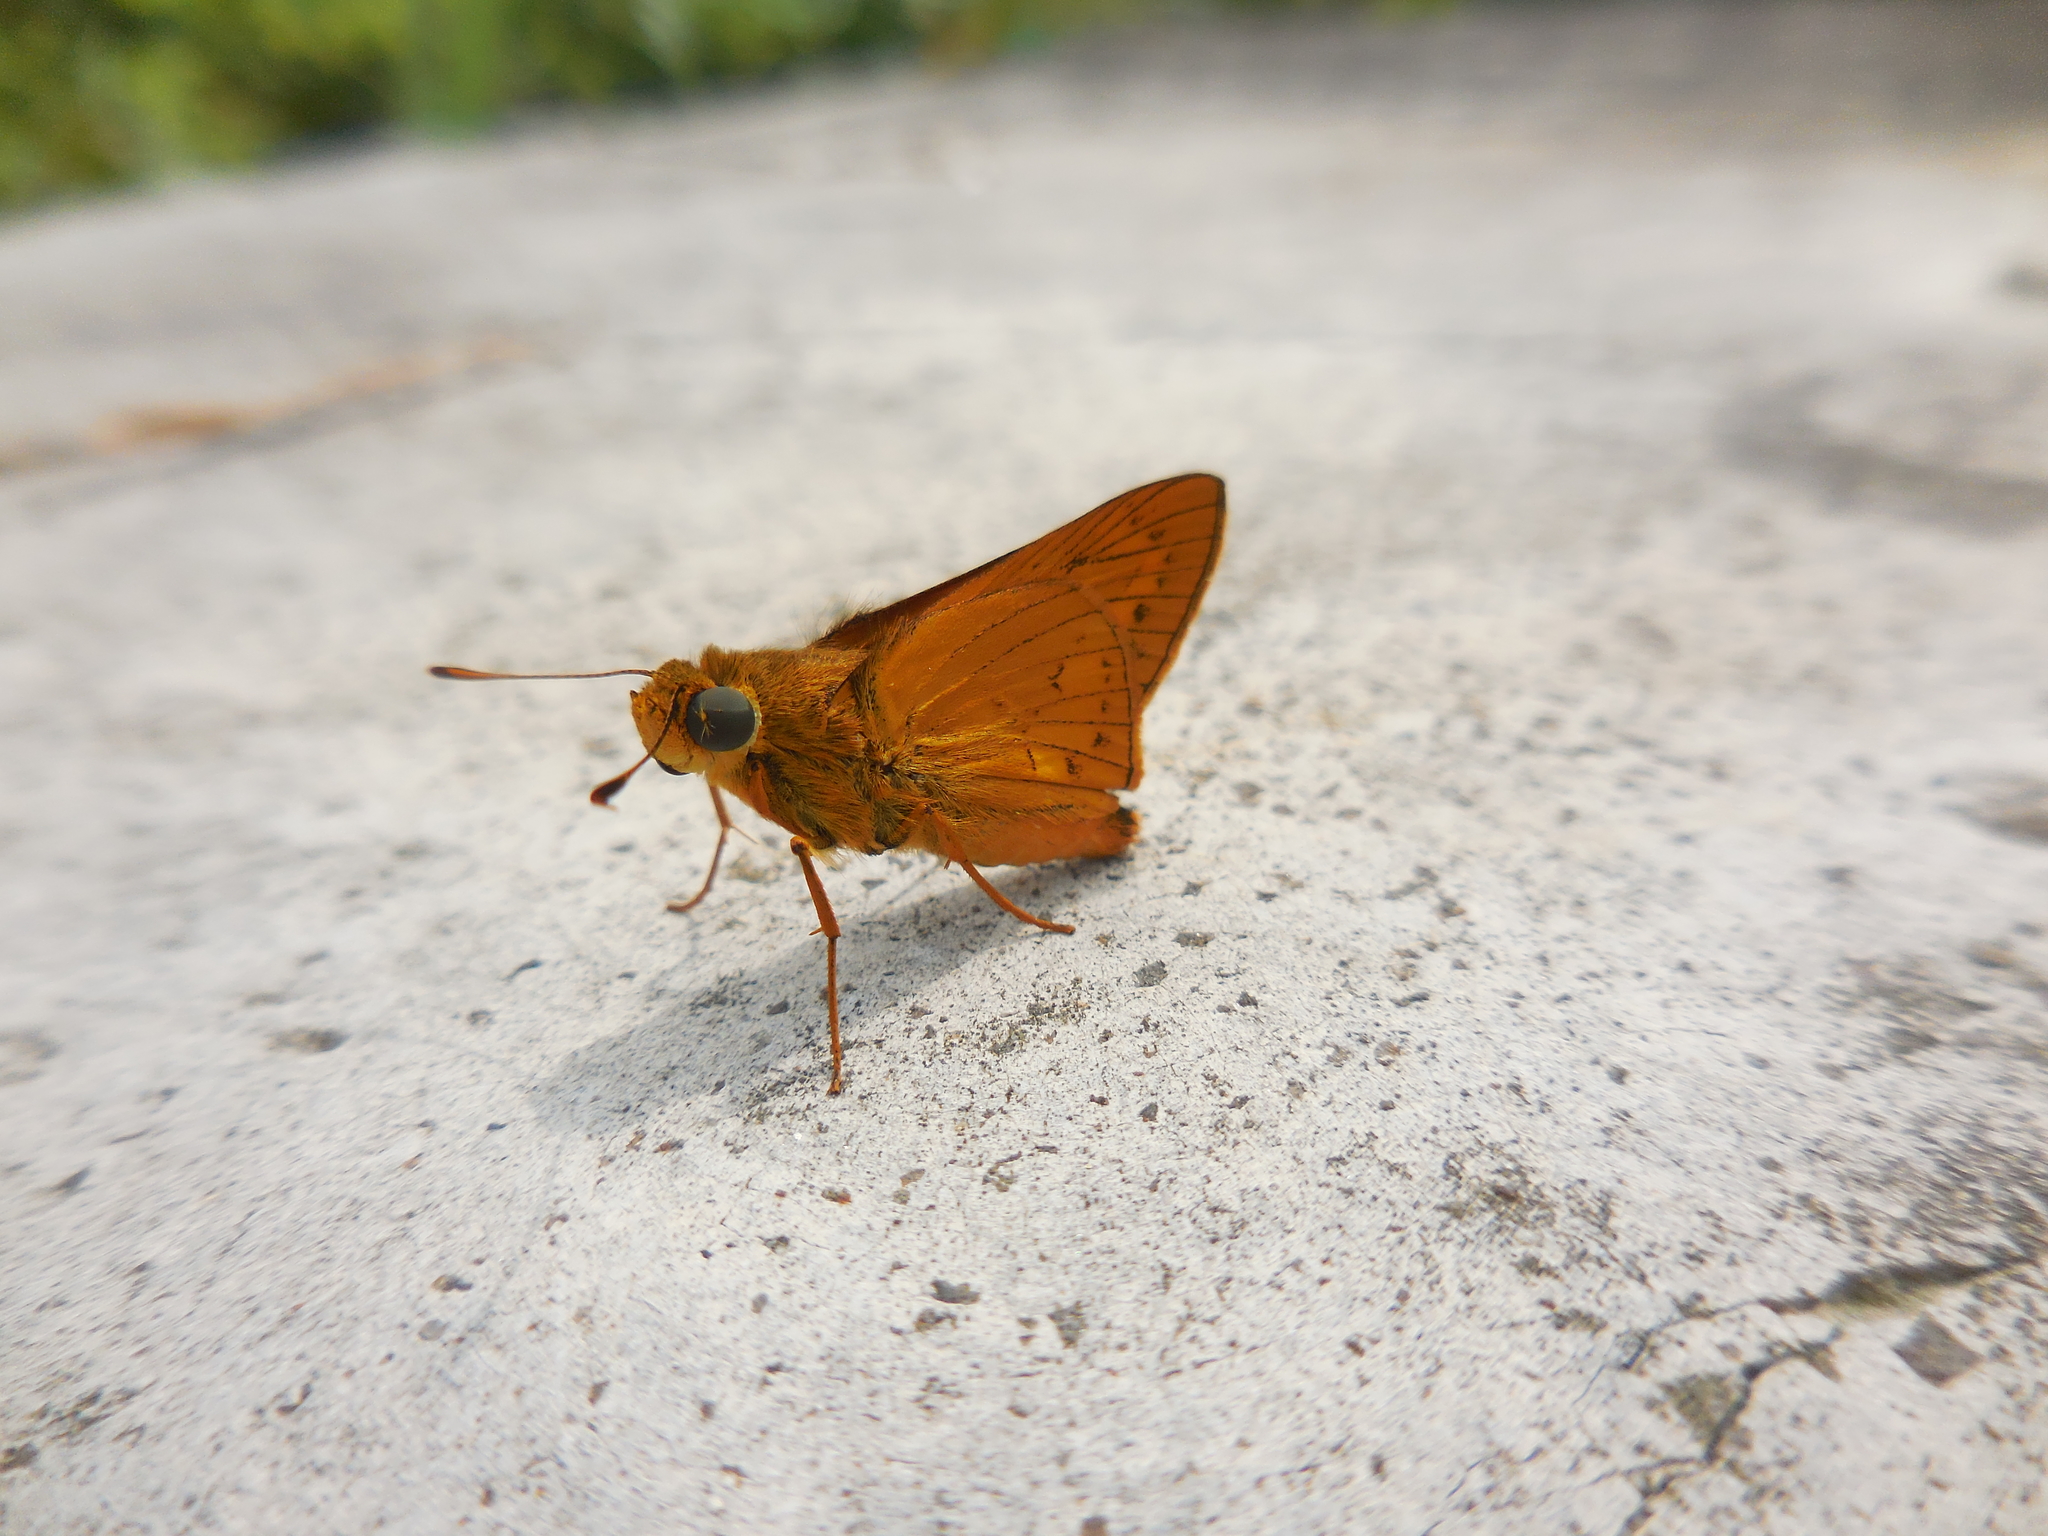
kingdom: Animalia
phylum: Arthropoda
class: Insecta
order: Lepidoptera
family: Hesperiidae
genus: Cephrenes
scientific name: Cephrenes trichopepla
